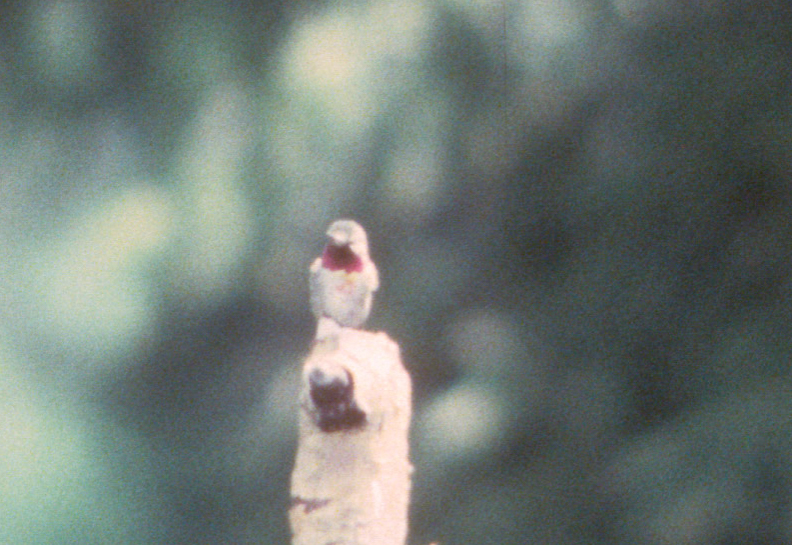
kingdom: Animalia
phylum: Chordata
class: Aves
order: Apodiformes
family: Trochilidae
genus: Selasphorus
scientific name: Selasphorus platycercus
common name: Broad-tailed hummingbird
